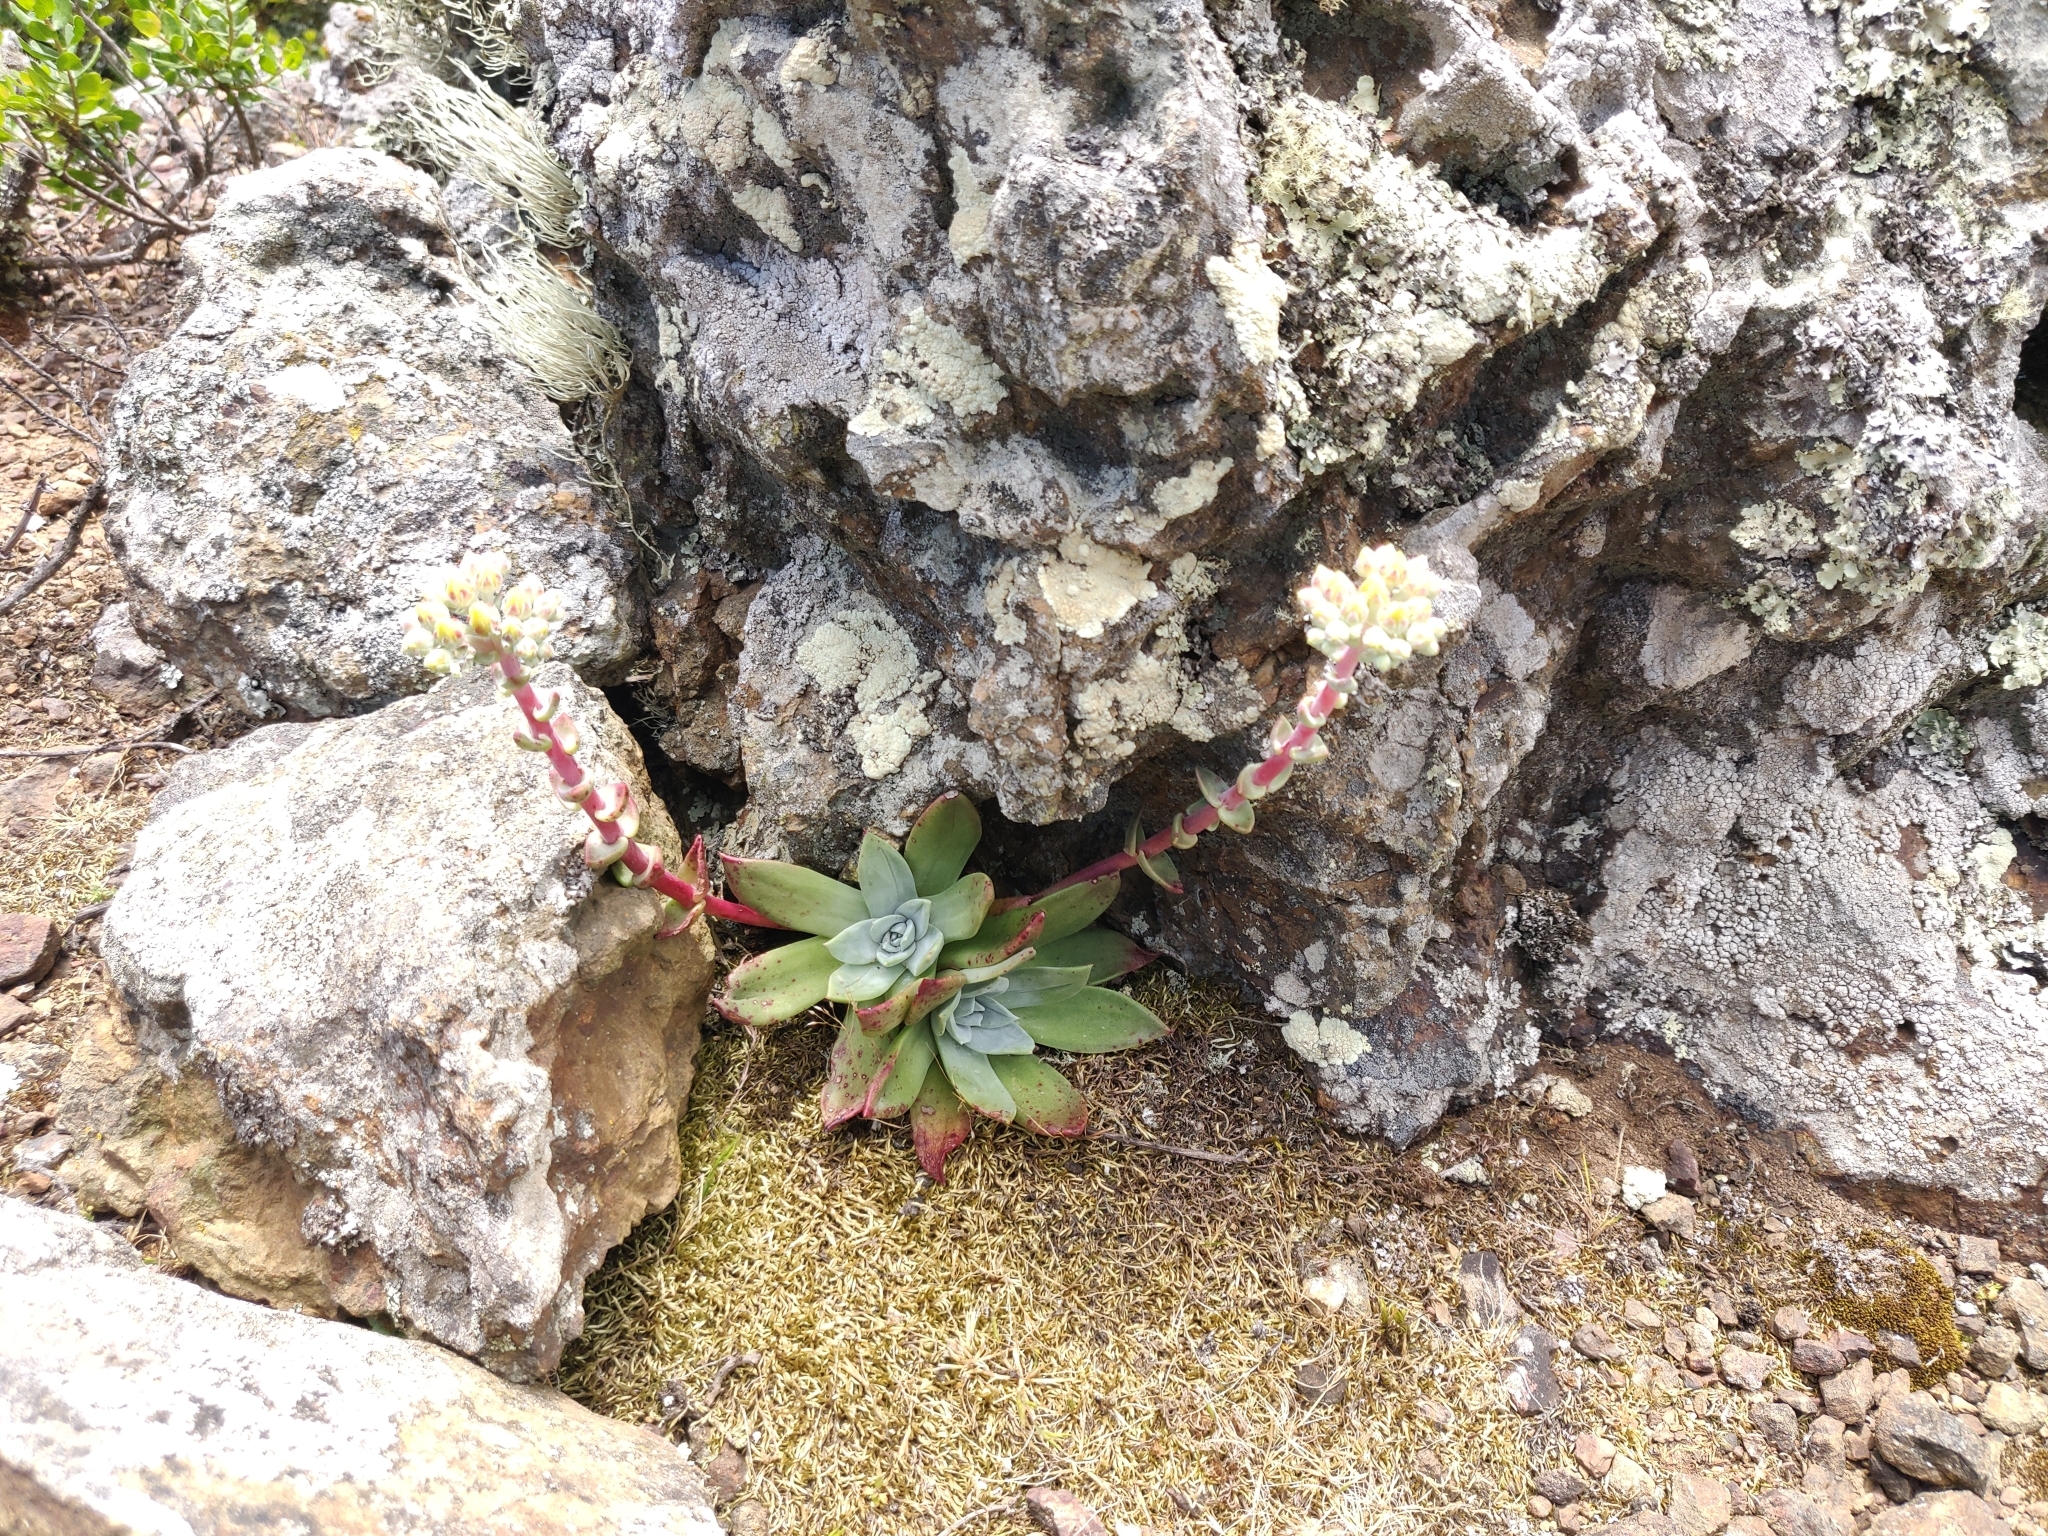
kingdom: Plantae
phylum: Tracheophyta
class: Magnoliopsida
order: Saxifragales
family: Crassulaceae
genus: Dudleya
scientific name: Dudleya farinosa
